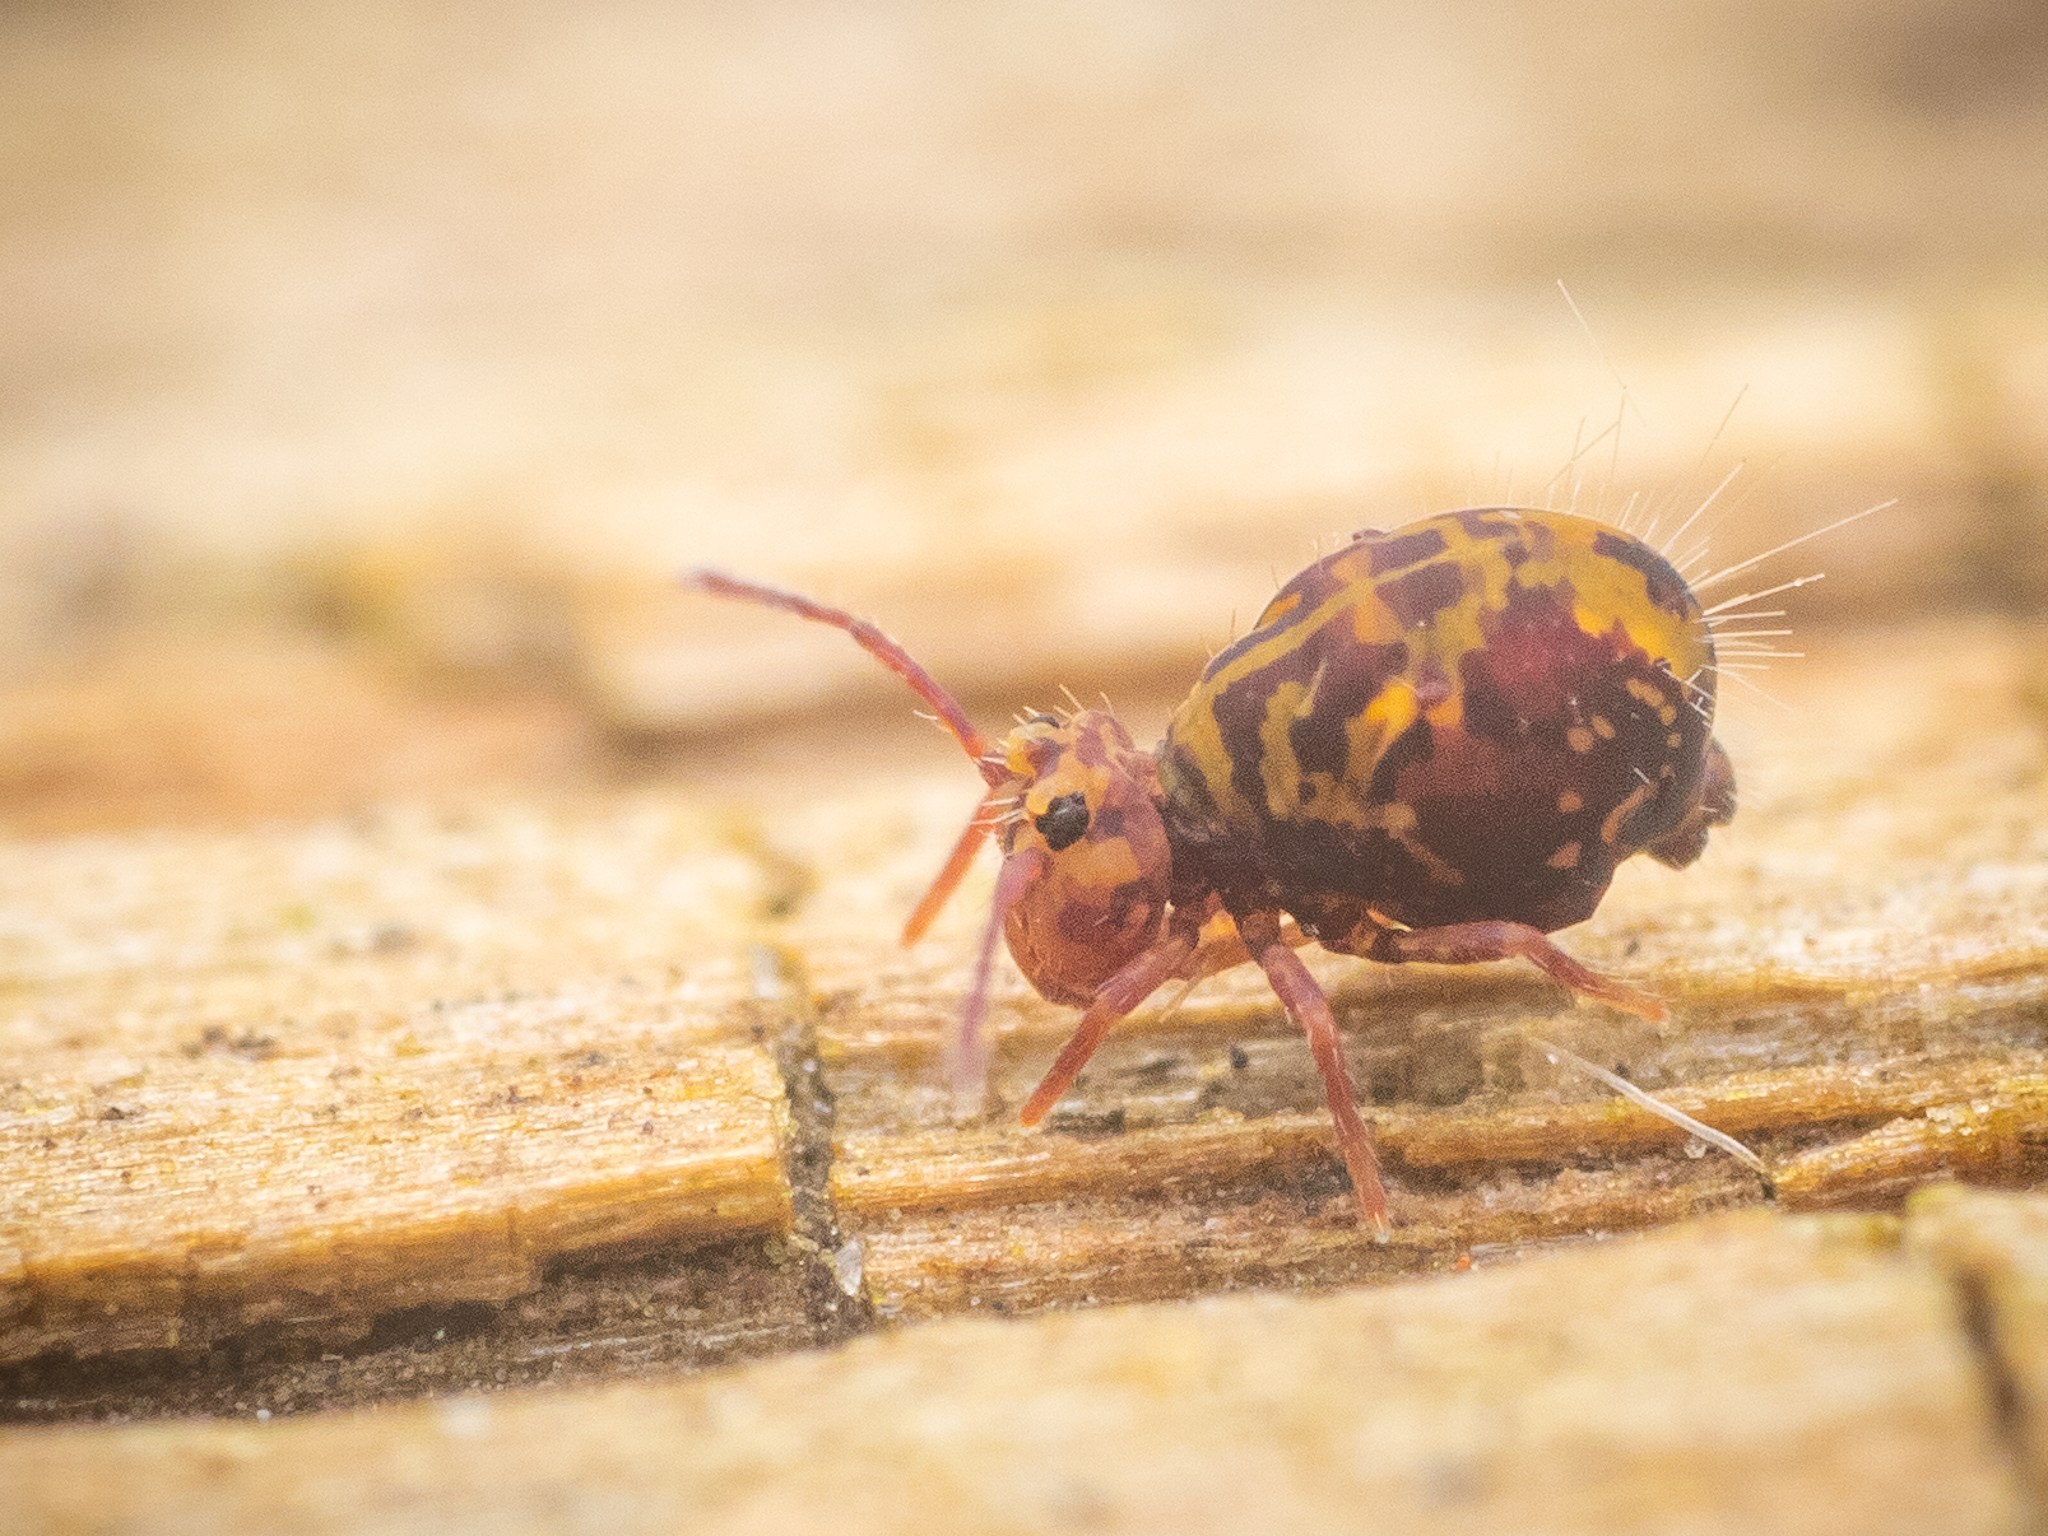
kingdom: Animalia
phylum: Arthropoda
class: Collembola
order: Symphypleona
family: Dicyrtomidae
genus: Dicyrtomina
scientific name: Dicyrtomina ornata
